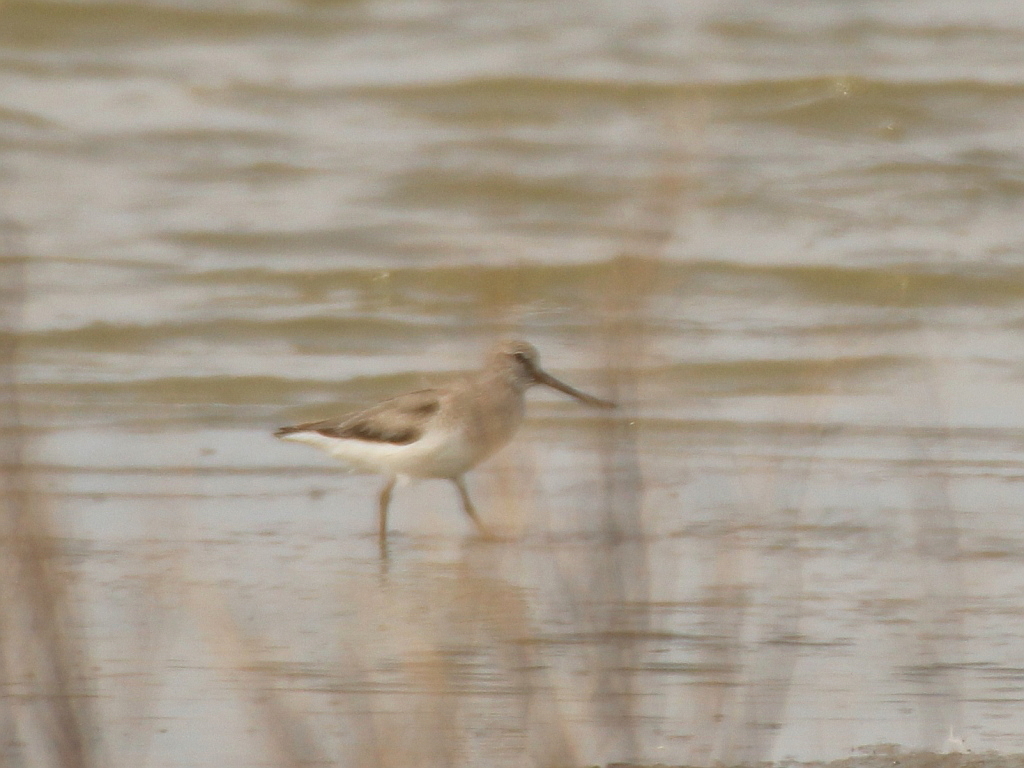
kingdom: Animalia
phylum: Chordata
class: Aves
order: Charadriiformes
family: Scolopacidae
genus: Xenus
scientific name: Xenus cinereus
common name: Terek sandpiper
